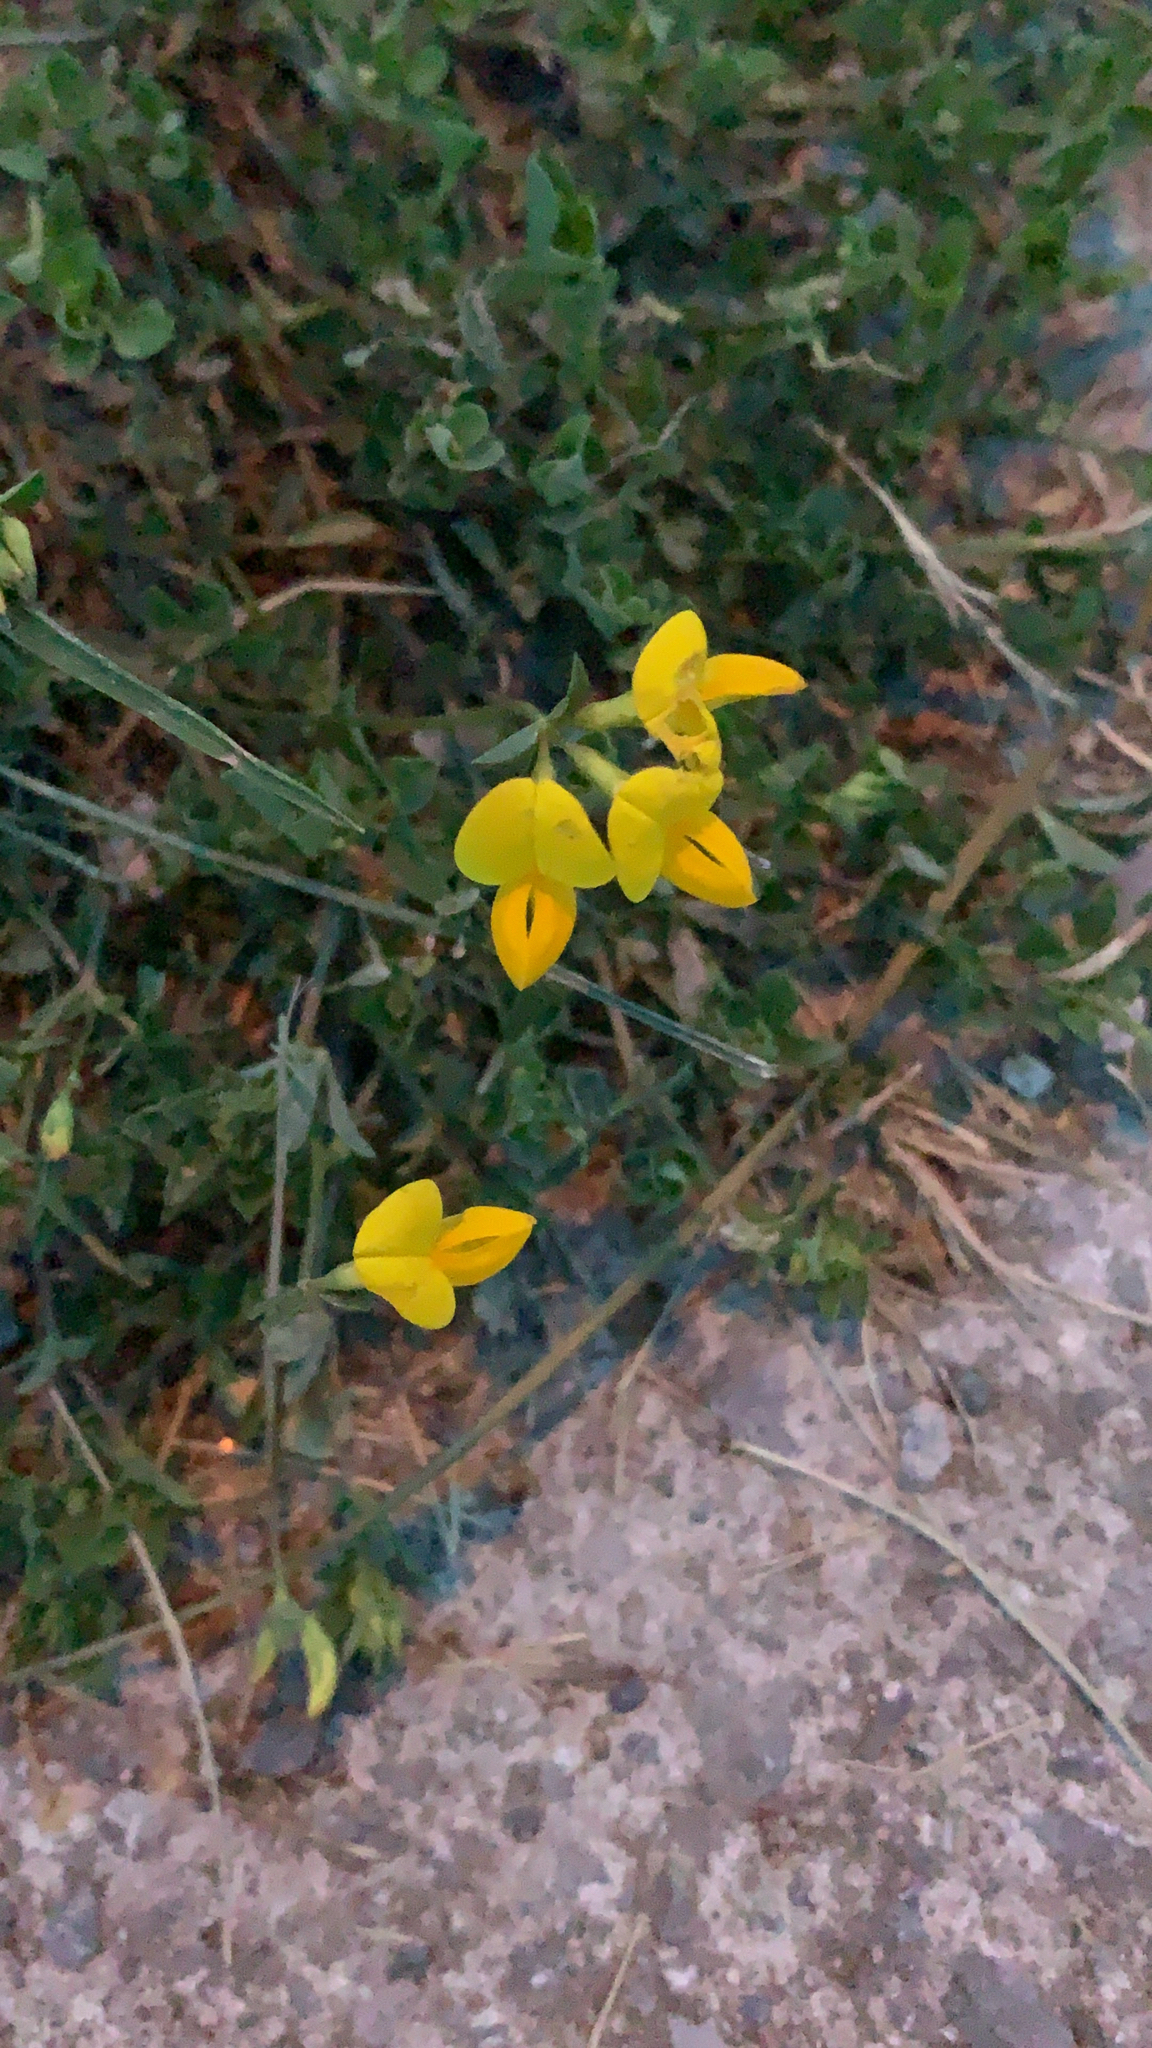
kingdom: Plantae
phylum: Tracheophyta
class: Magnoliopsida
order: Fabales
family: Fabaceae
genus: Lotus
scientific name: Lotus corniculatus
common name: Common bird's-foot-trefoil
